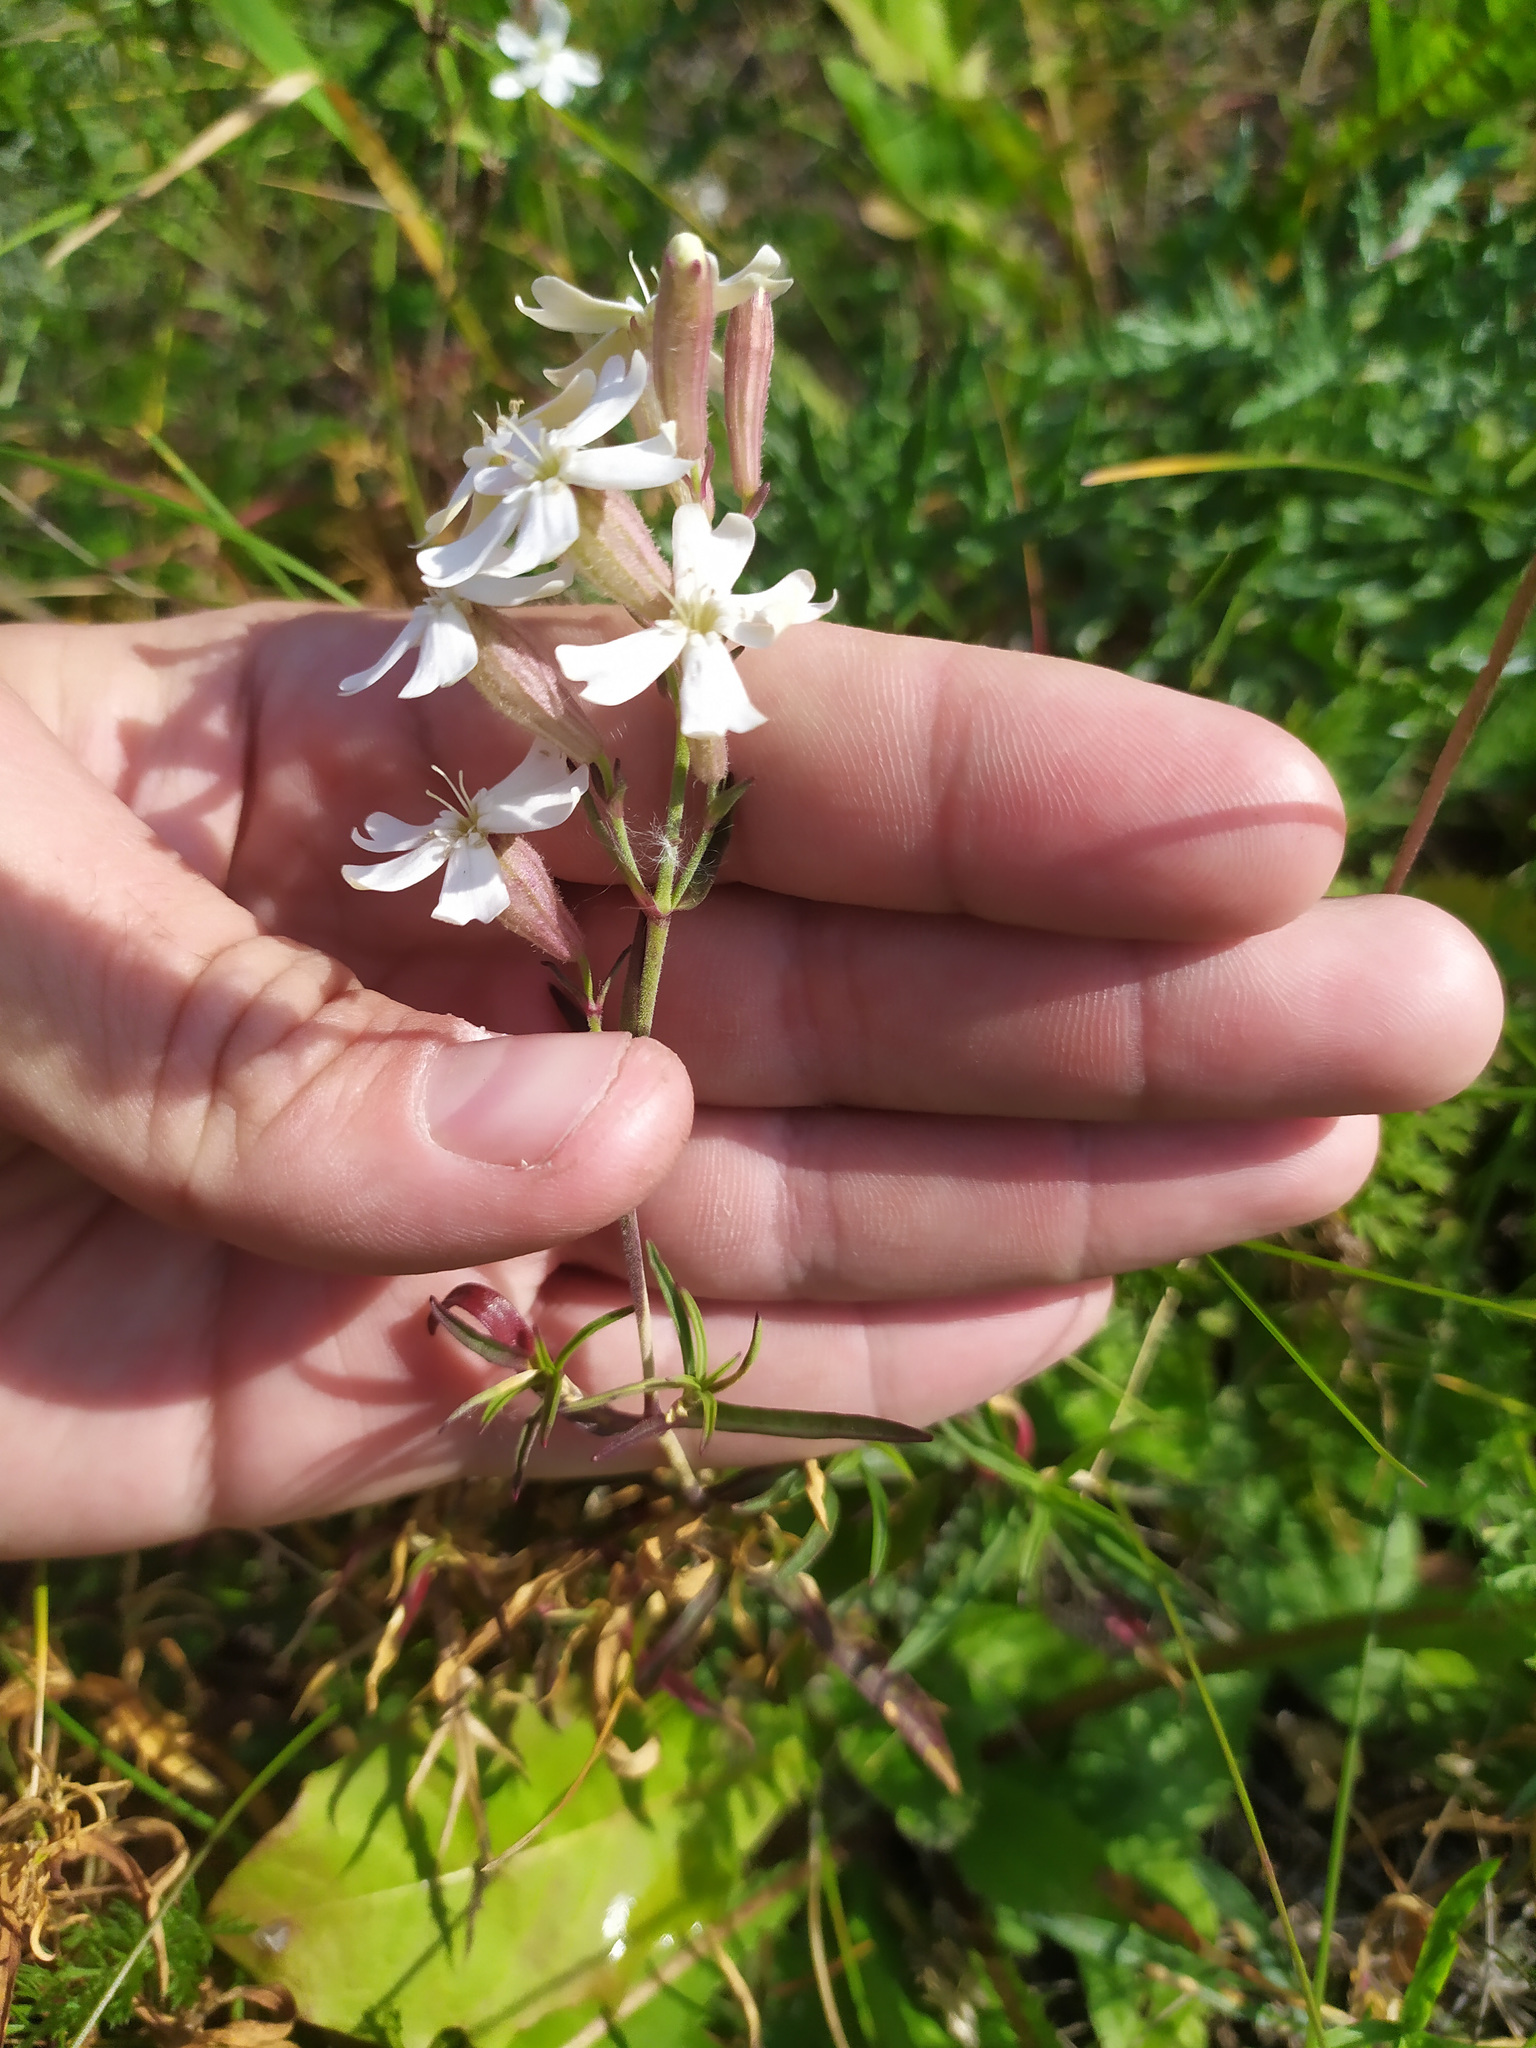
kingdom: Plantae
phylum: Tracheophyta
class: Magnoliopsida
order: Caryophyllales
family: Caryophyllaceae
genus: Silene
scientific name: Silene amoena
